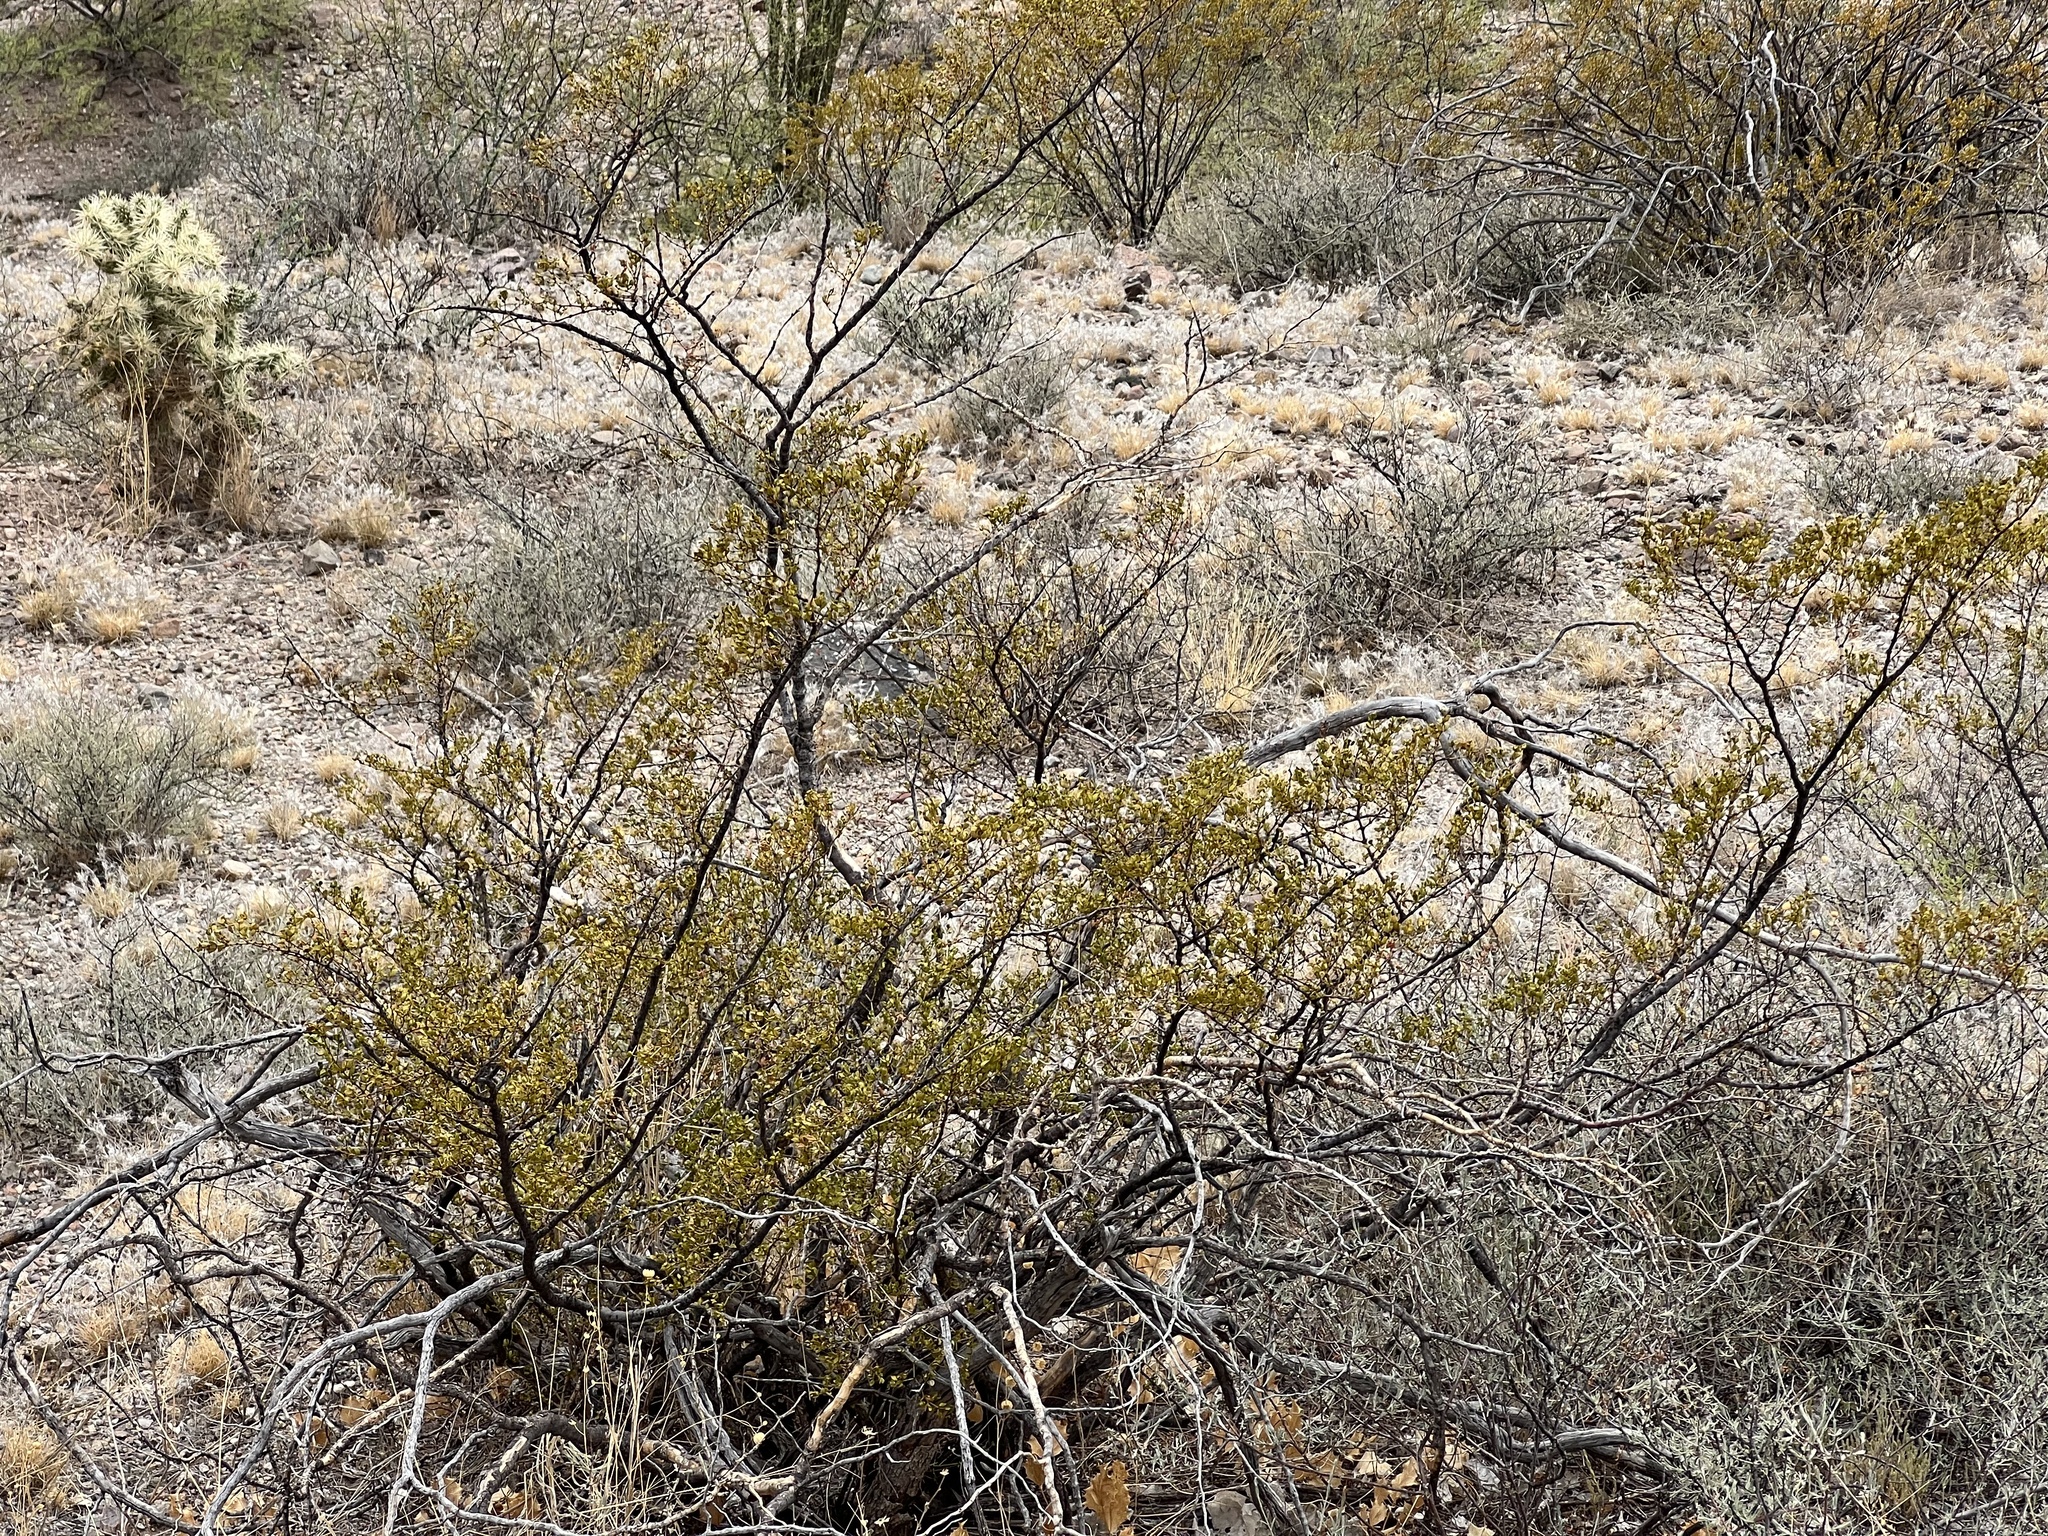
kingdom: Plantae
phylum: Tracheophyta
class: Magnoliopsida
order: Zygophyllales
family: Zygophyllaceae
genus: Larrea
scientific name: Larrea tridentata
